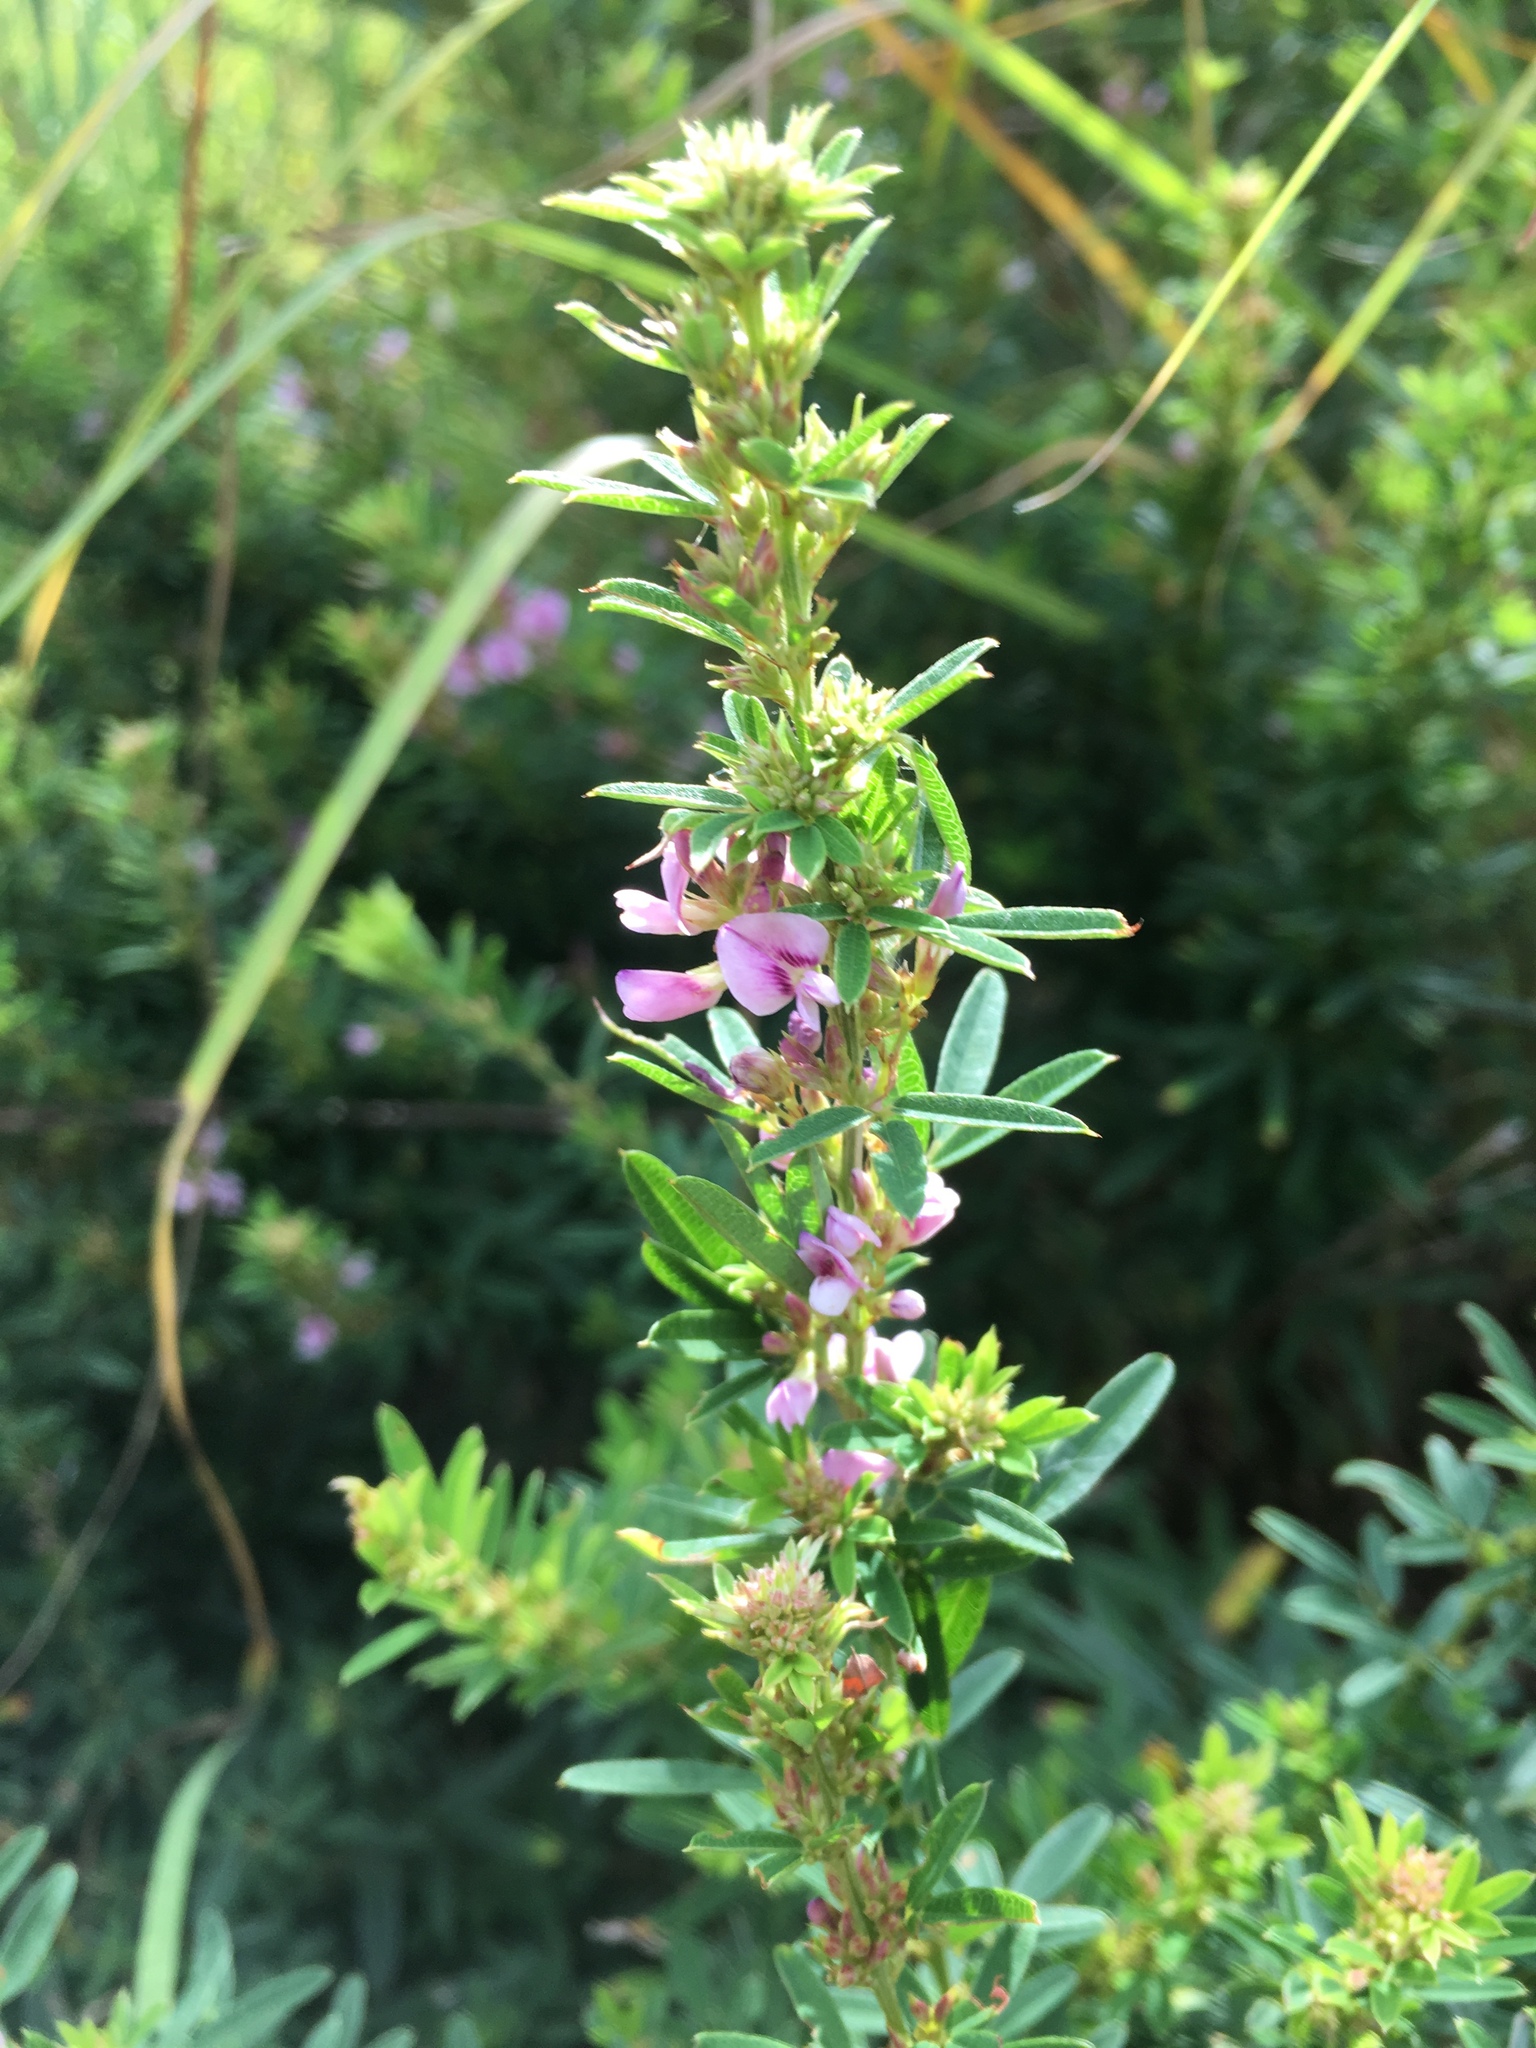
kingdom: Plantae
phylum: Tracheophyta
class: Magnoliopsida
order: Fabales
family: Fabaceae
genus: Lespedeza
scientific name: Lespedeza virginica
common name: Slender bush-clover
